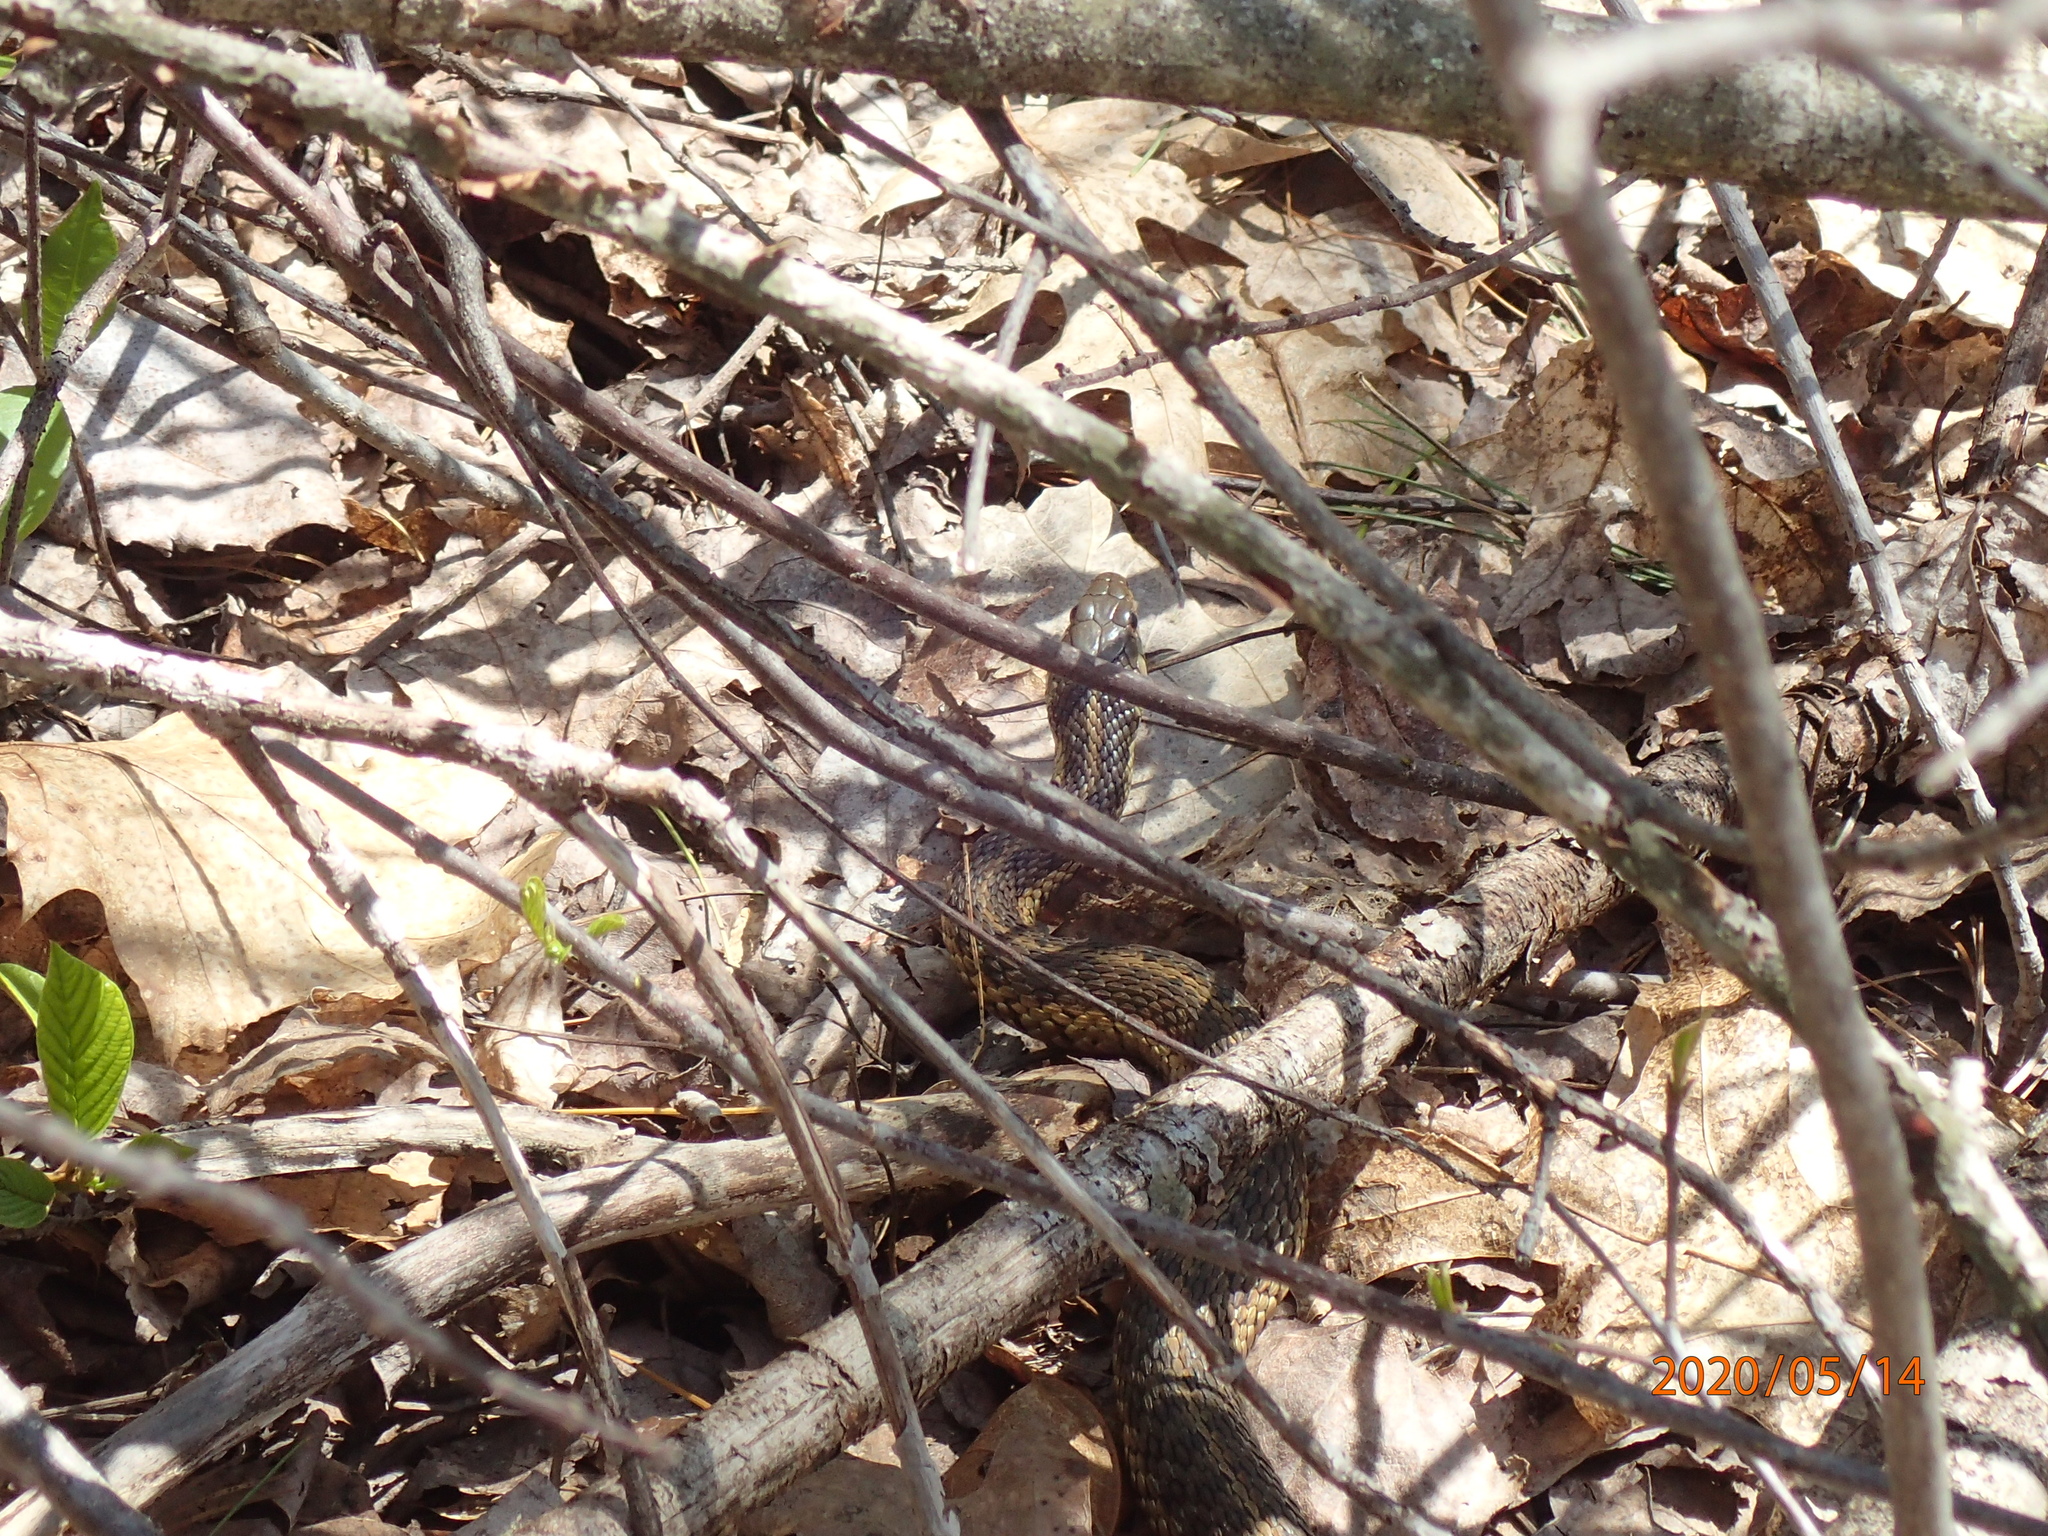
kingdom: Animalia
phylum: Chordata
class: Squamata
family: Colubridae
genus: Thamnophis
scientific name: Thamnophis sirtalis
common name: Common garter snake
